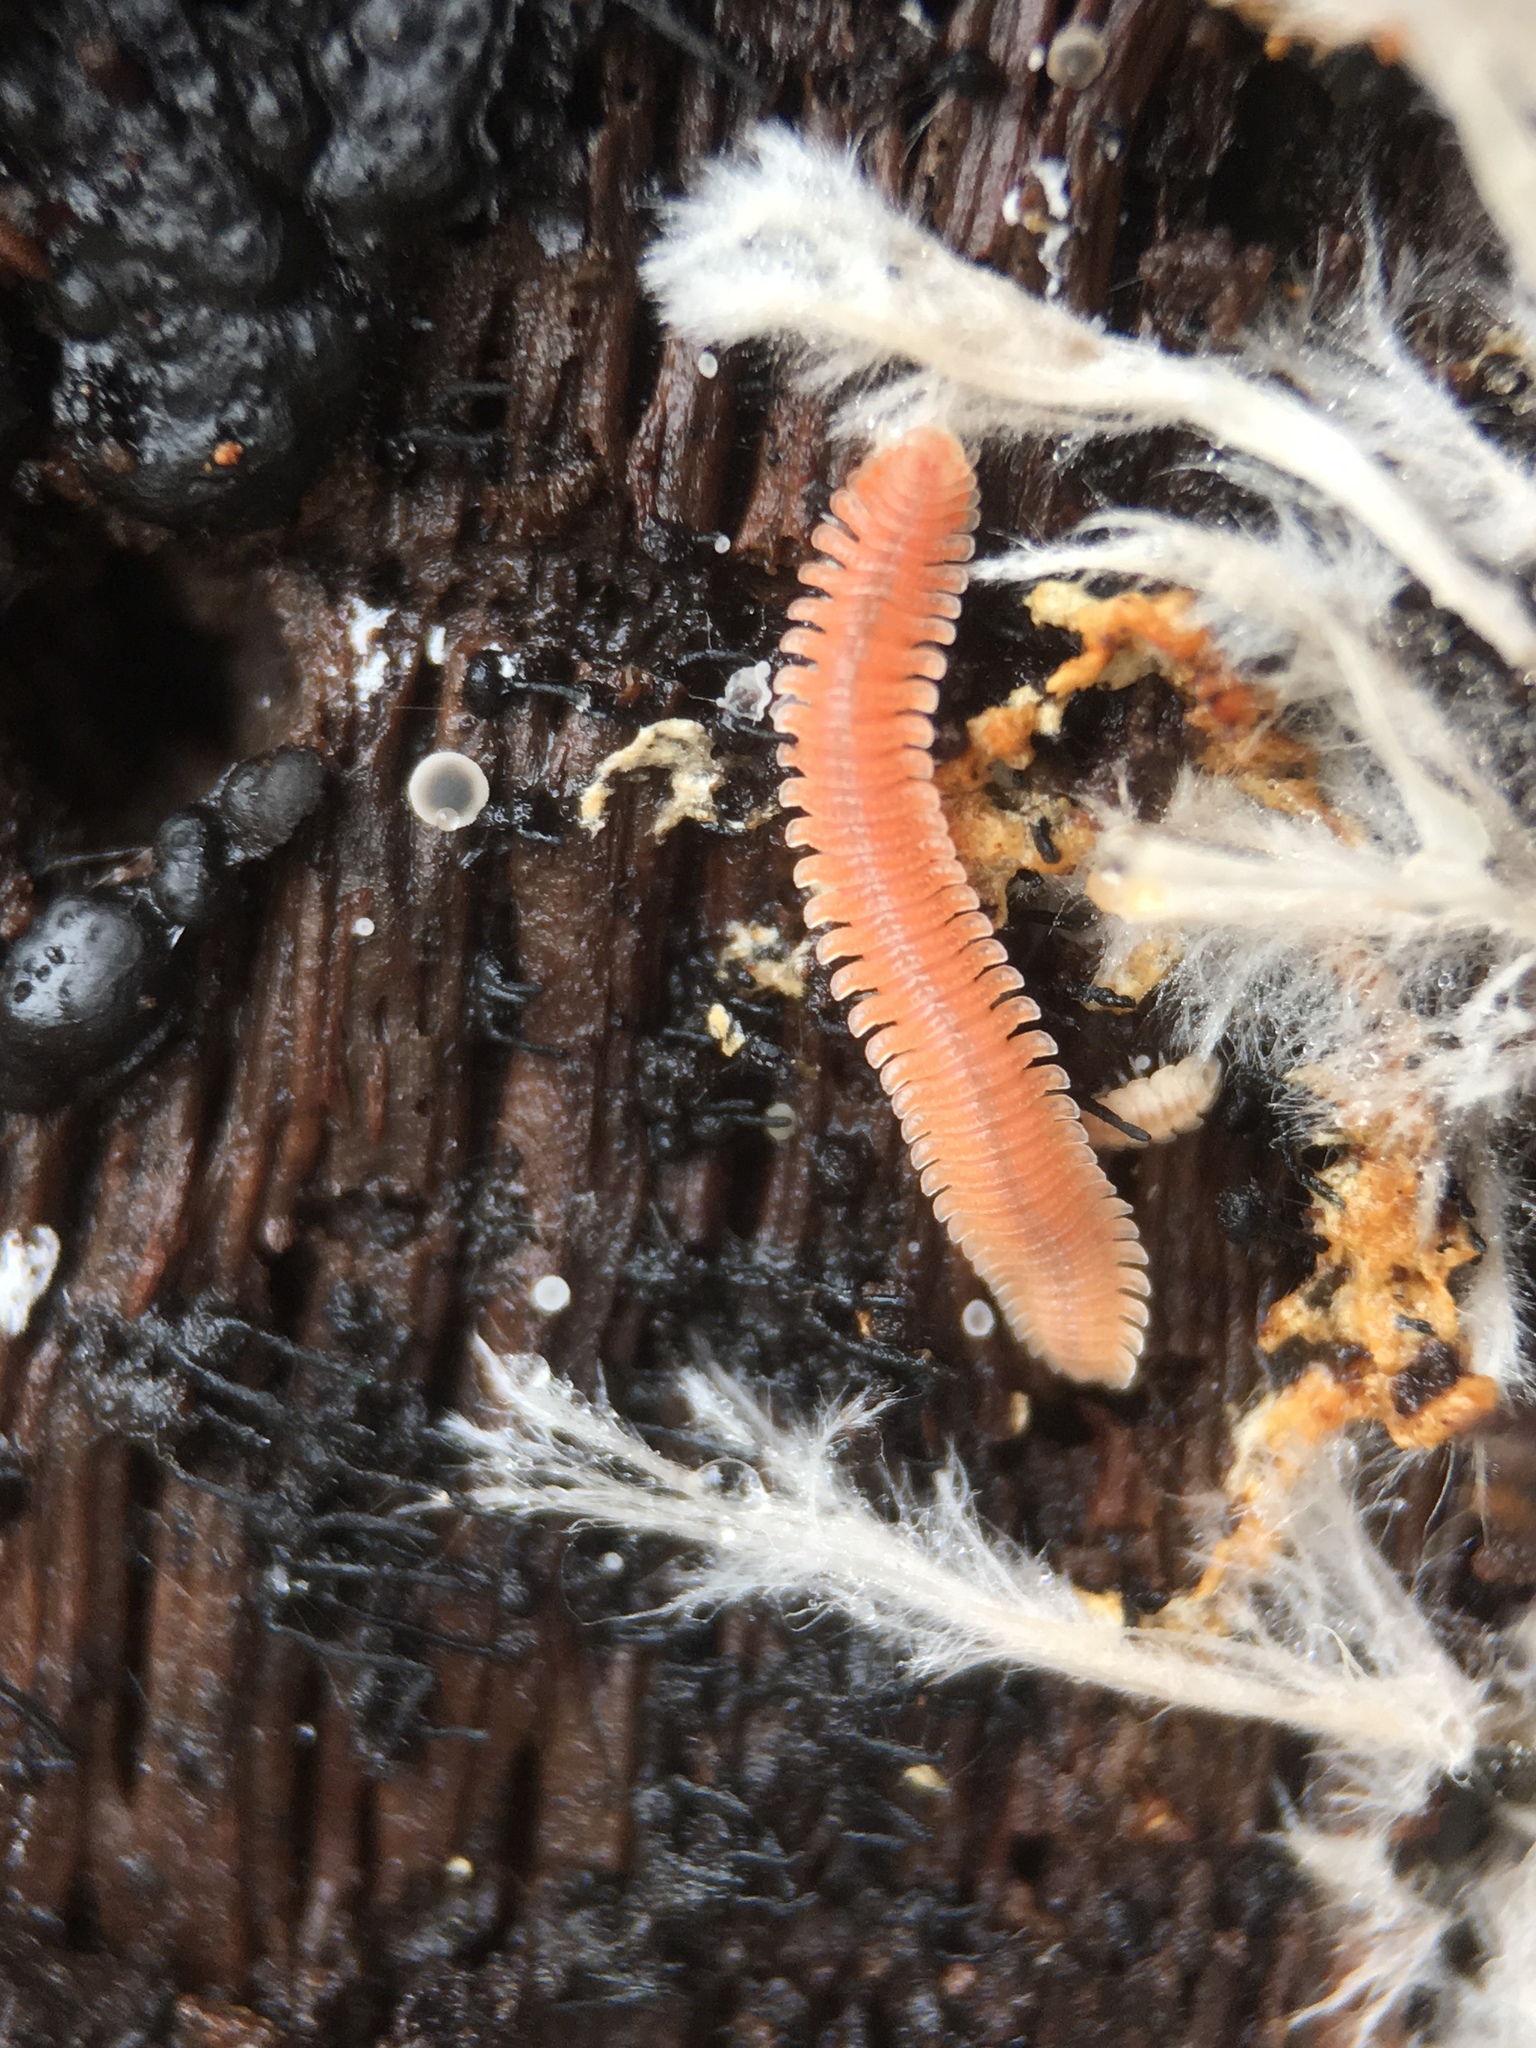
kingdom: Animalia
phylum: Arthropoda
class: Diplopoda
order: Platydesmida
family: Andrognathidae
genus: Brachycybe
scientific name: Brachycybe producta
